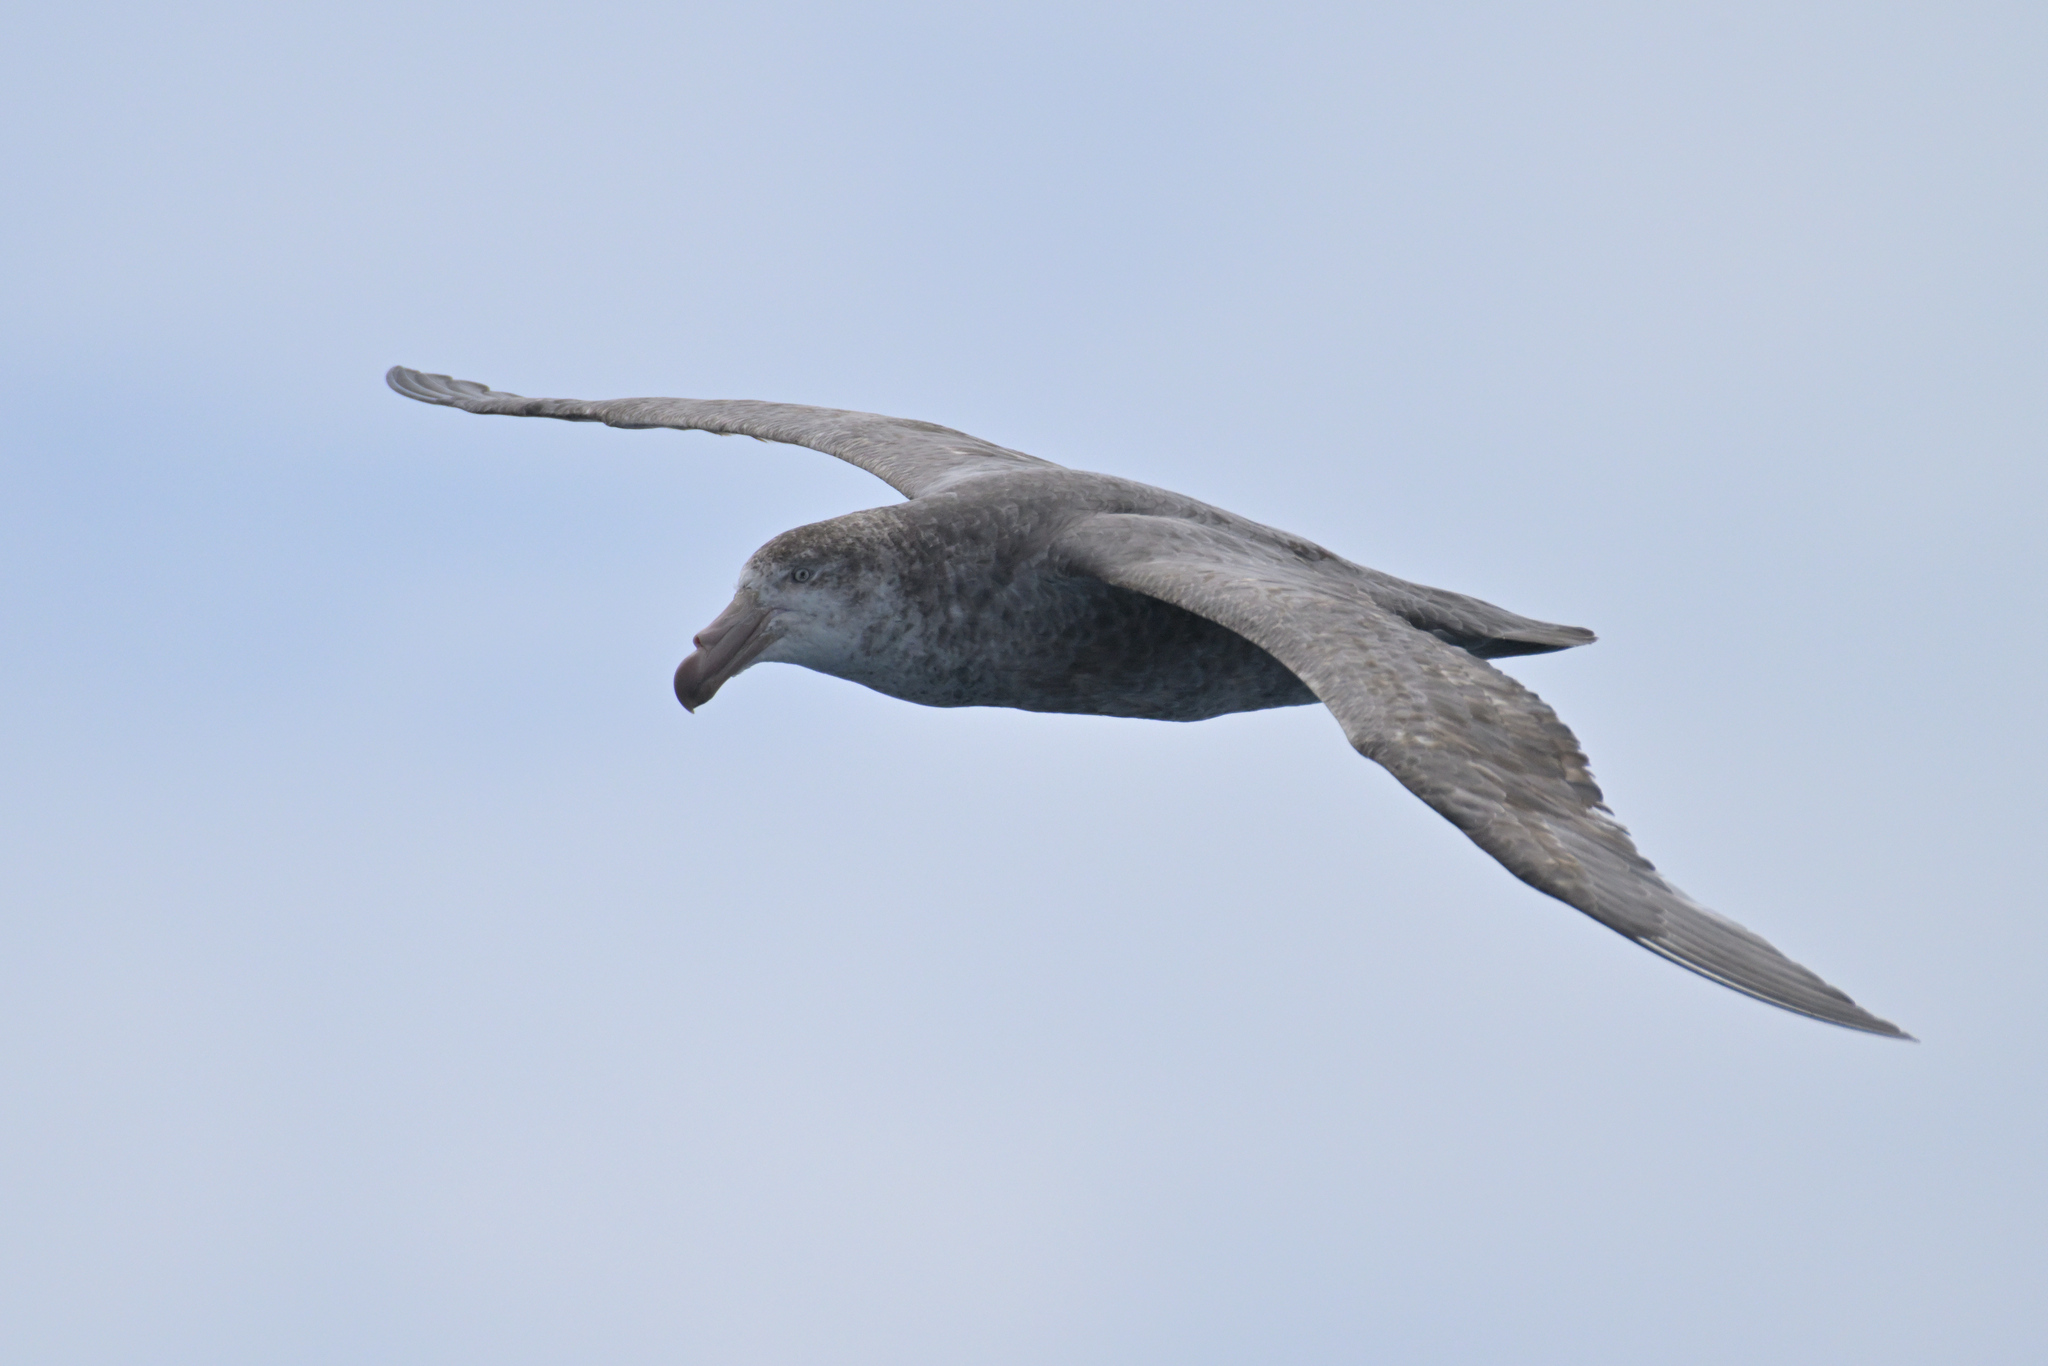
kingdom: Animalia
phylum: Chordata
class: Aves
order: Procellariiformes
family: Procellariidae
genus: Macronectes
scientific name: Macronectes halli
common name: Northern giant petrel
